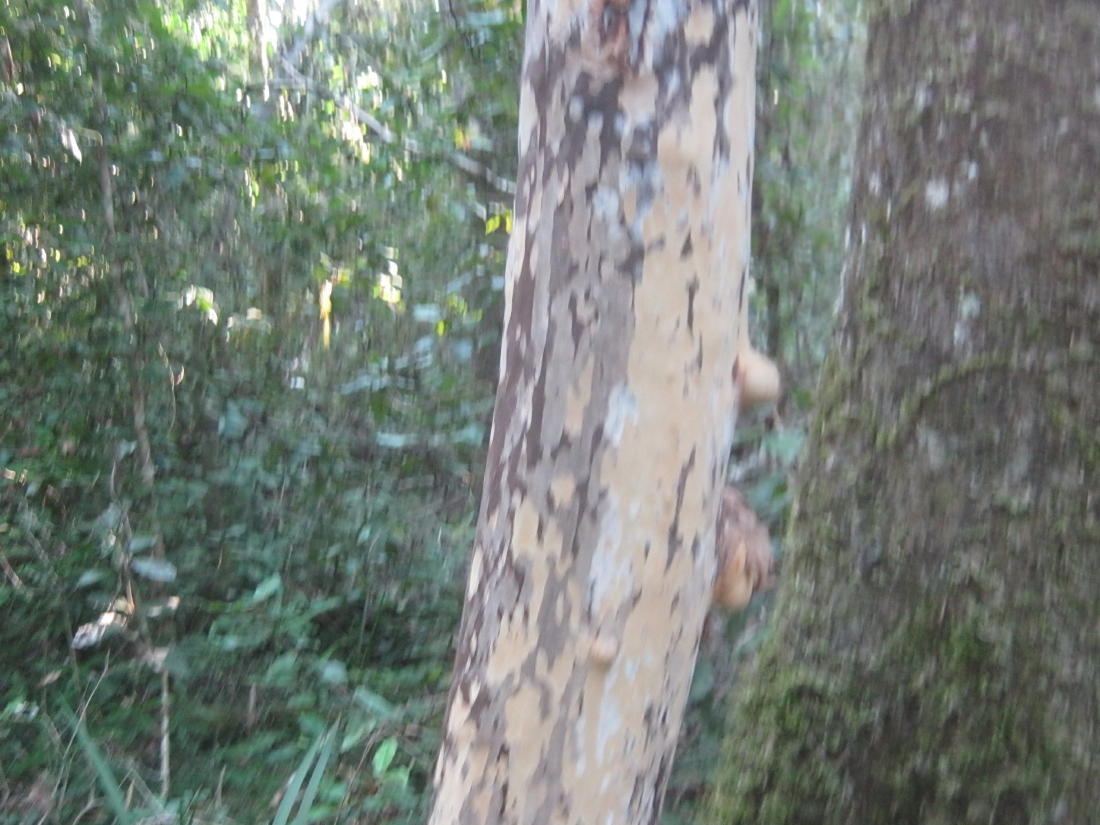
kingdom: Plantae
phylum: Tracheophyta
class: Magnoliopsida
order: Malpighiales
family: Ochnaceae
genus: Ochna
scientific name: Ochna arborea
